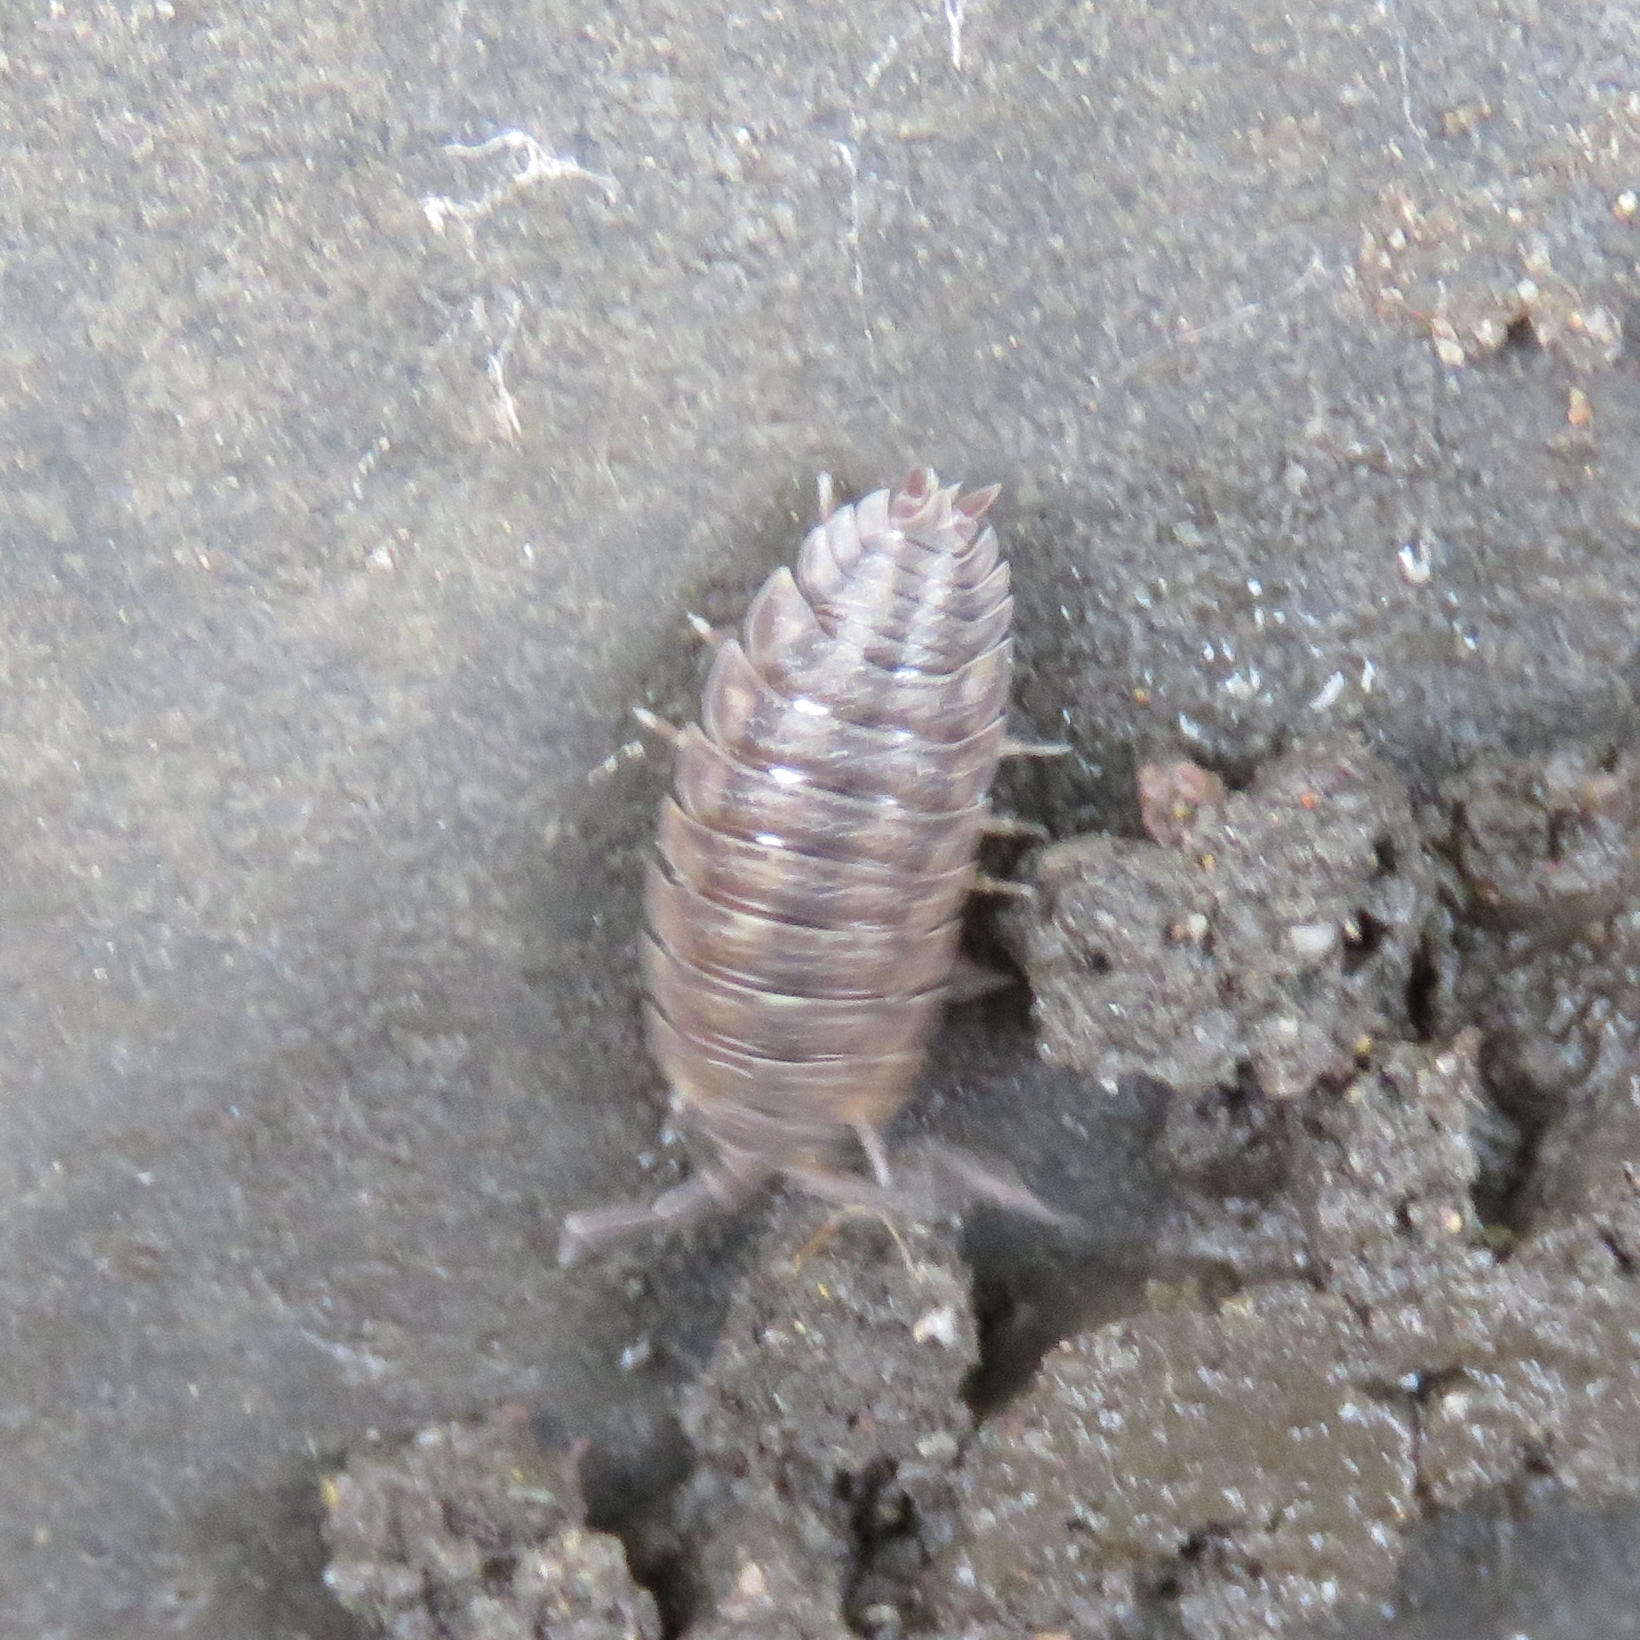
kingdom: Animalia
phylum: Arthropoda
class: Malacostraca
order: Isopoda
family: Porcellionidae
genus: Porcellio
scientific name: Porcellio scaber
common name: Common rough woodlouse
